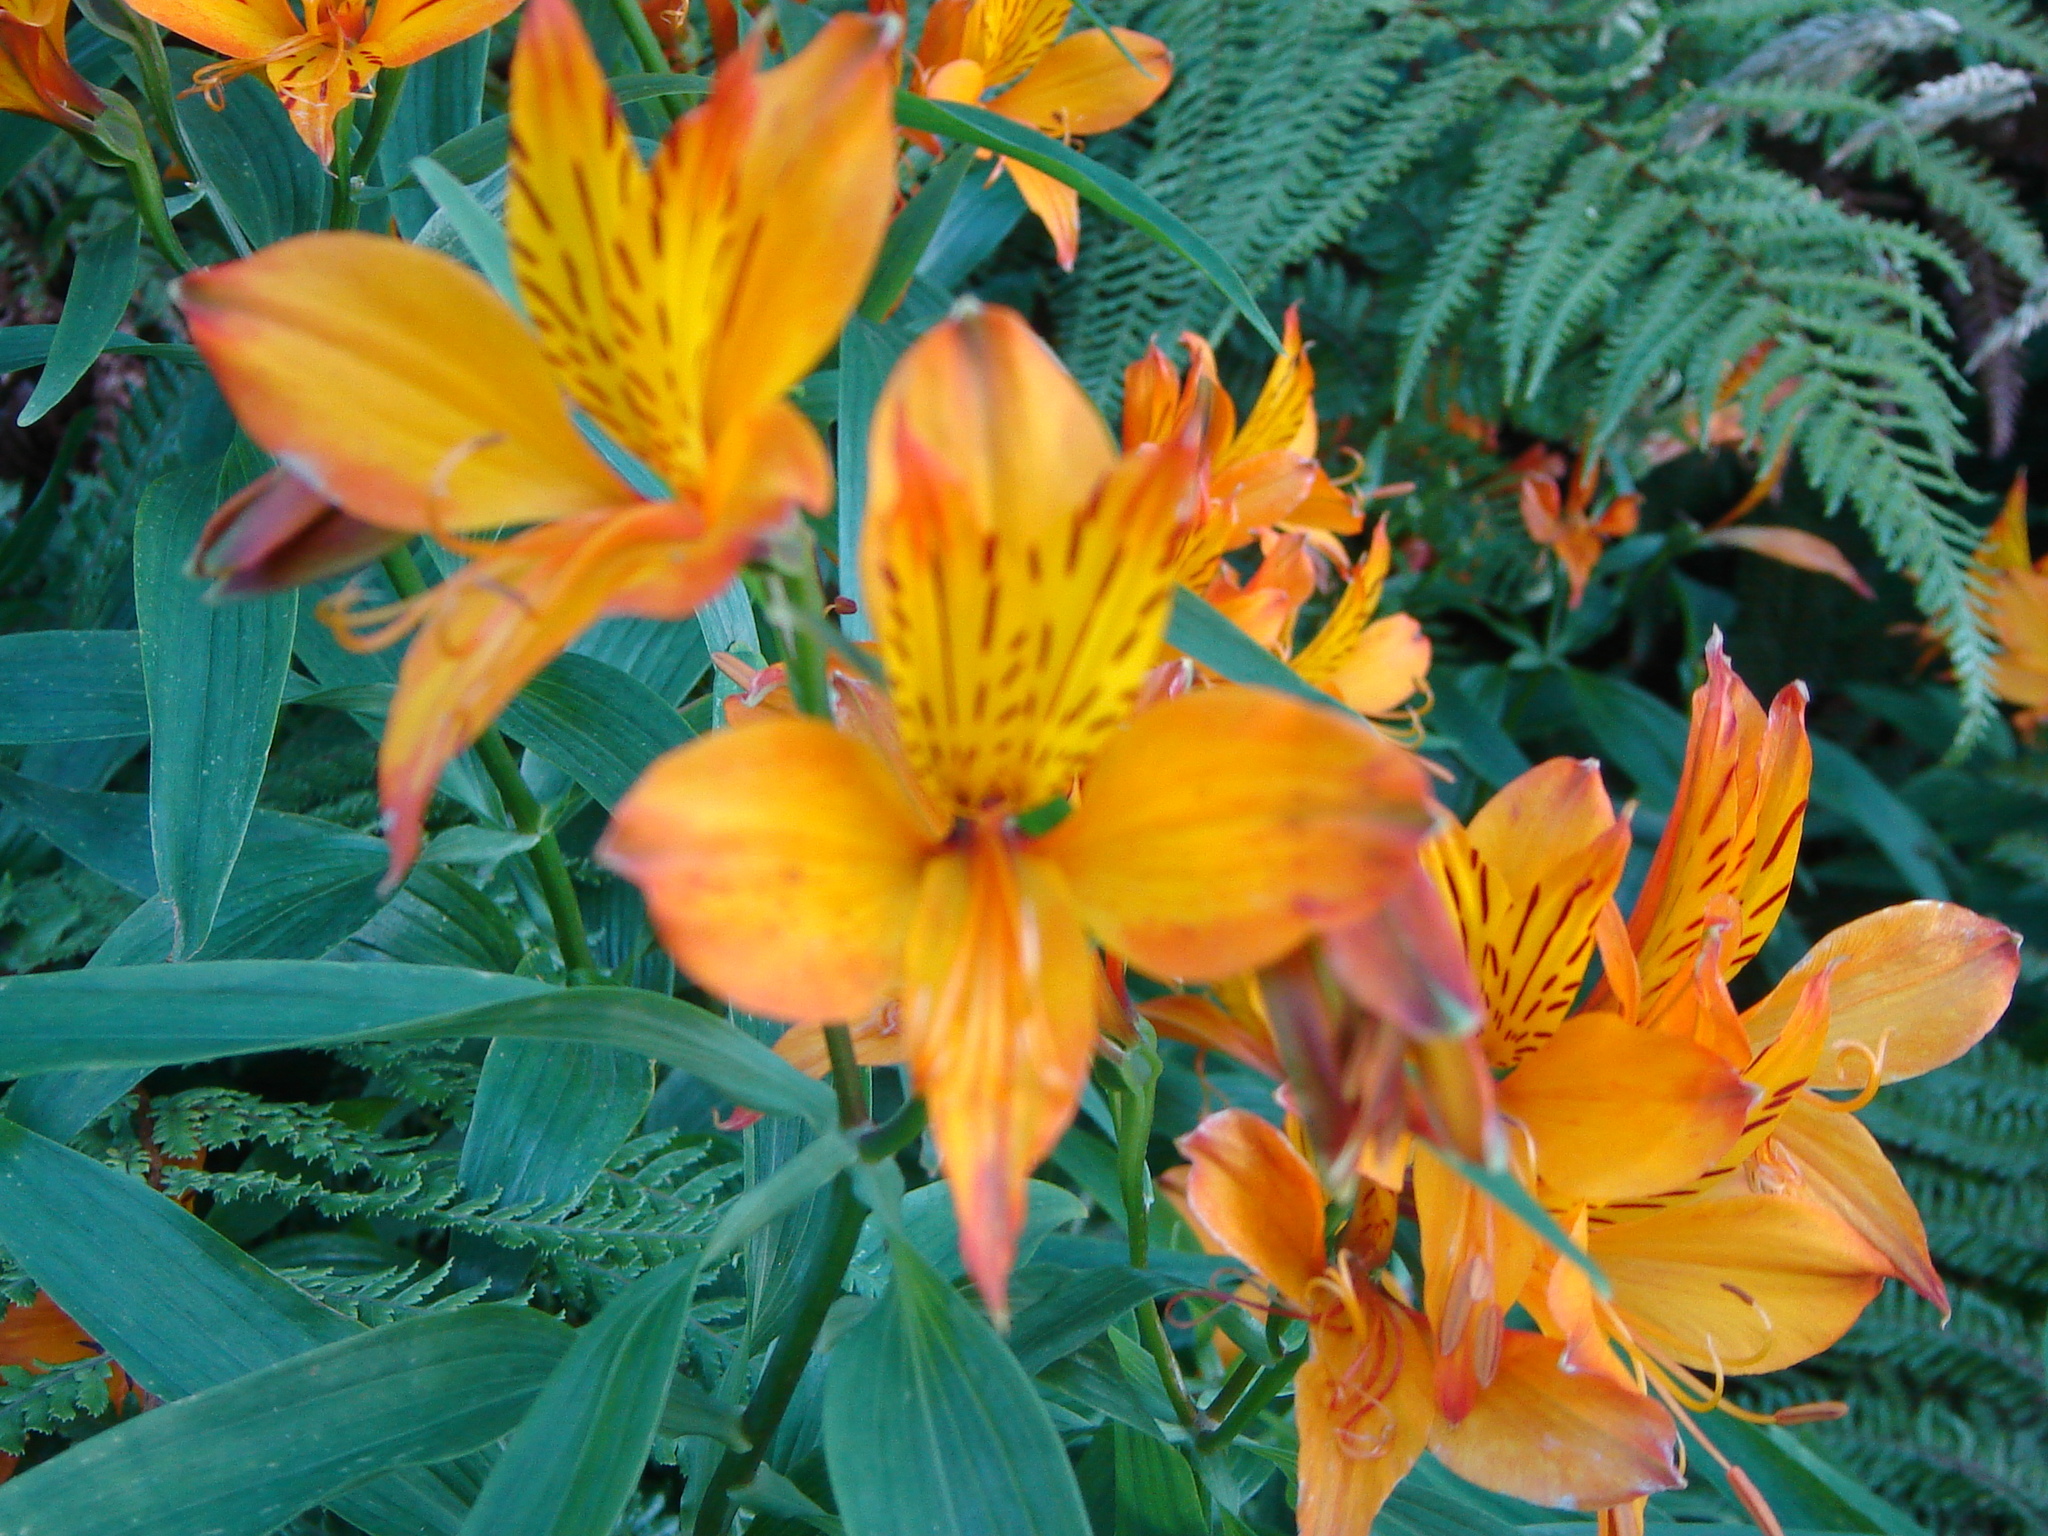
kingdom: Plantae
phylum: Tracheophyta
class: Liliopsida
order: Liliales
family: Alstroemeriaceae
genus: Alstroemeria
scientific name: Alstroemeria aurea
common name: Peruvian lily
